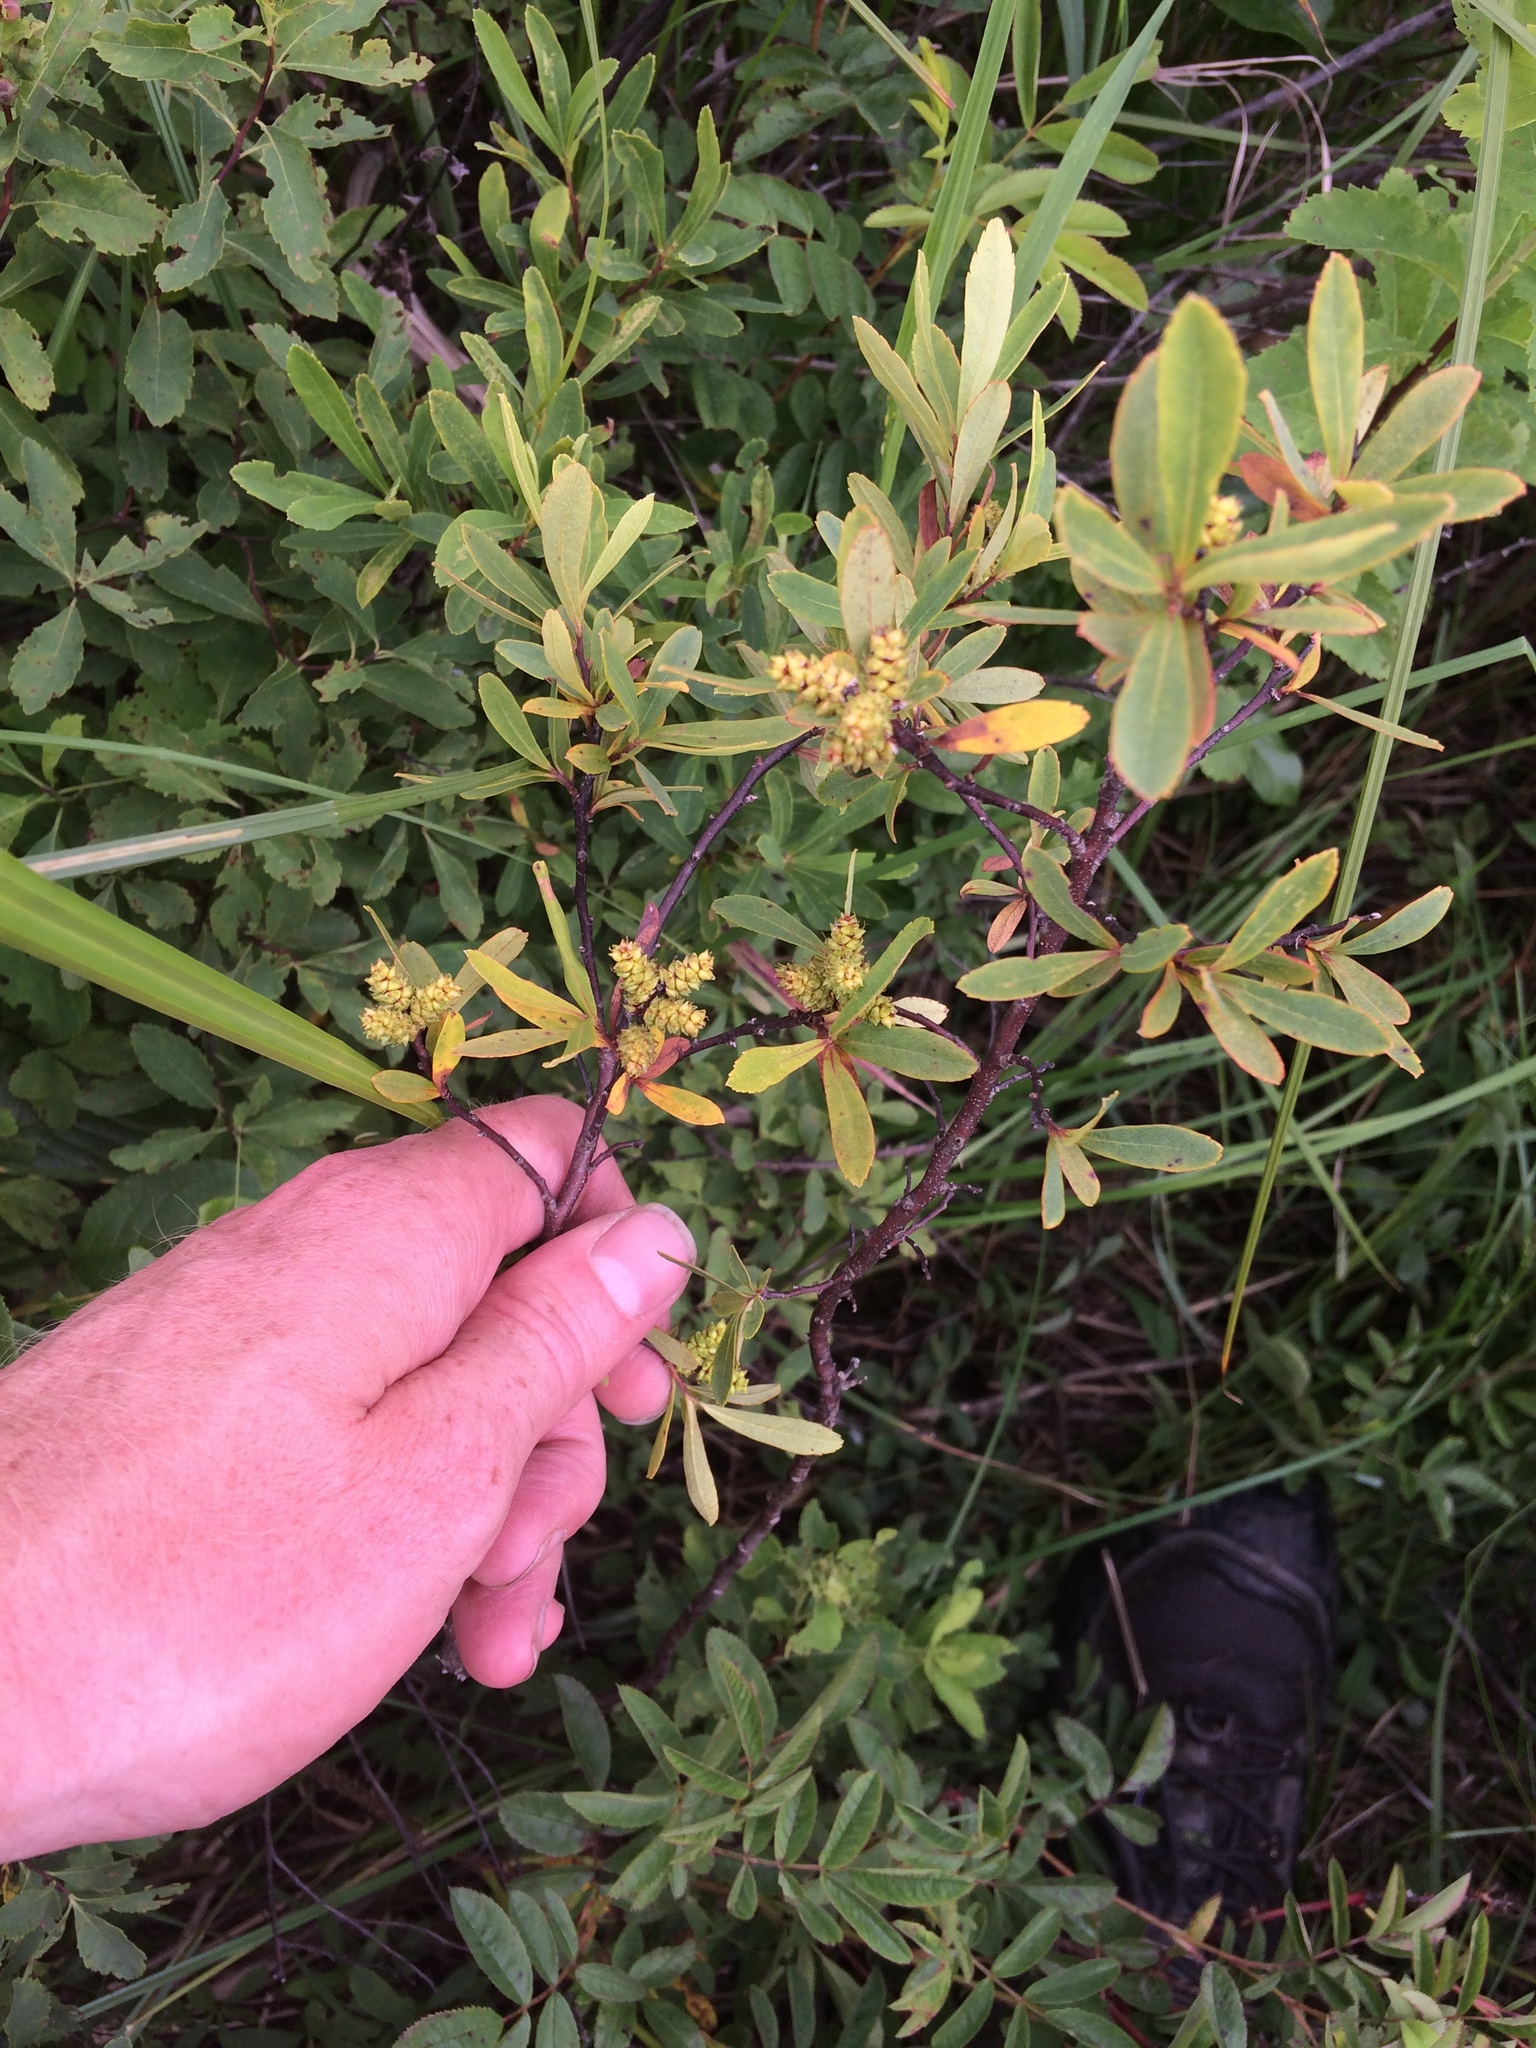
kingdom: Plantae
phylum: Tracheophyta
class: Magnoliopsida
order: Fagales
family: Myricaceae
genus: Myrica
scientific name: Myrica gale
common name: Sweet gale
